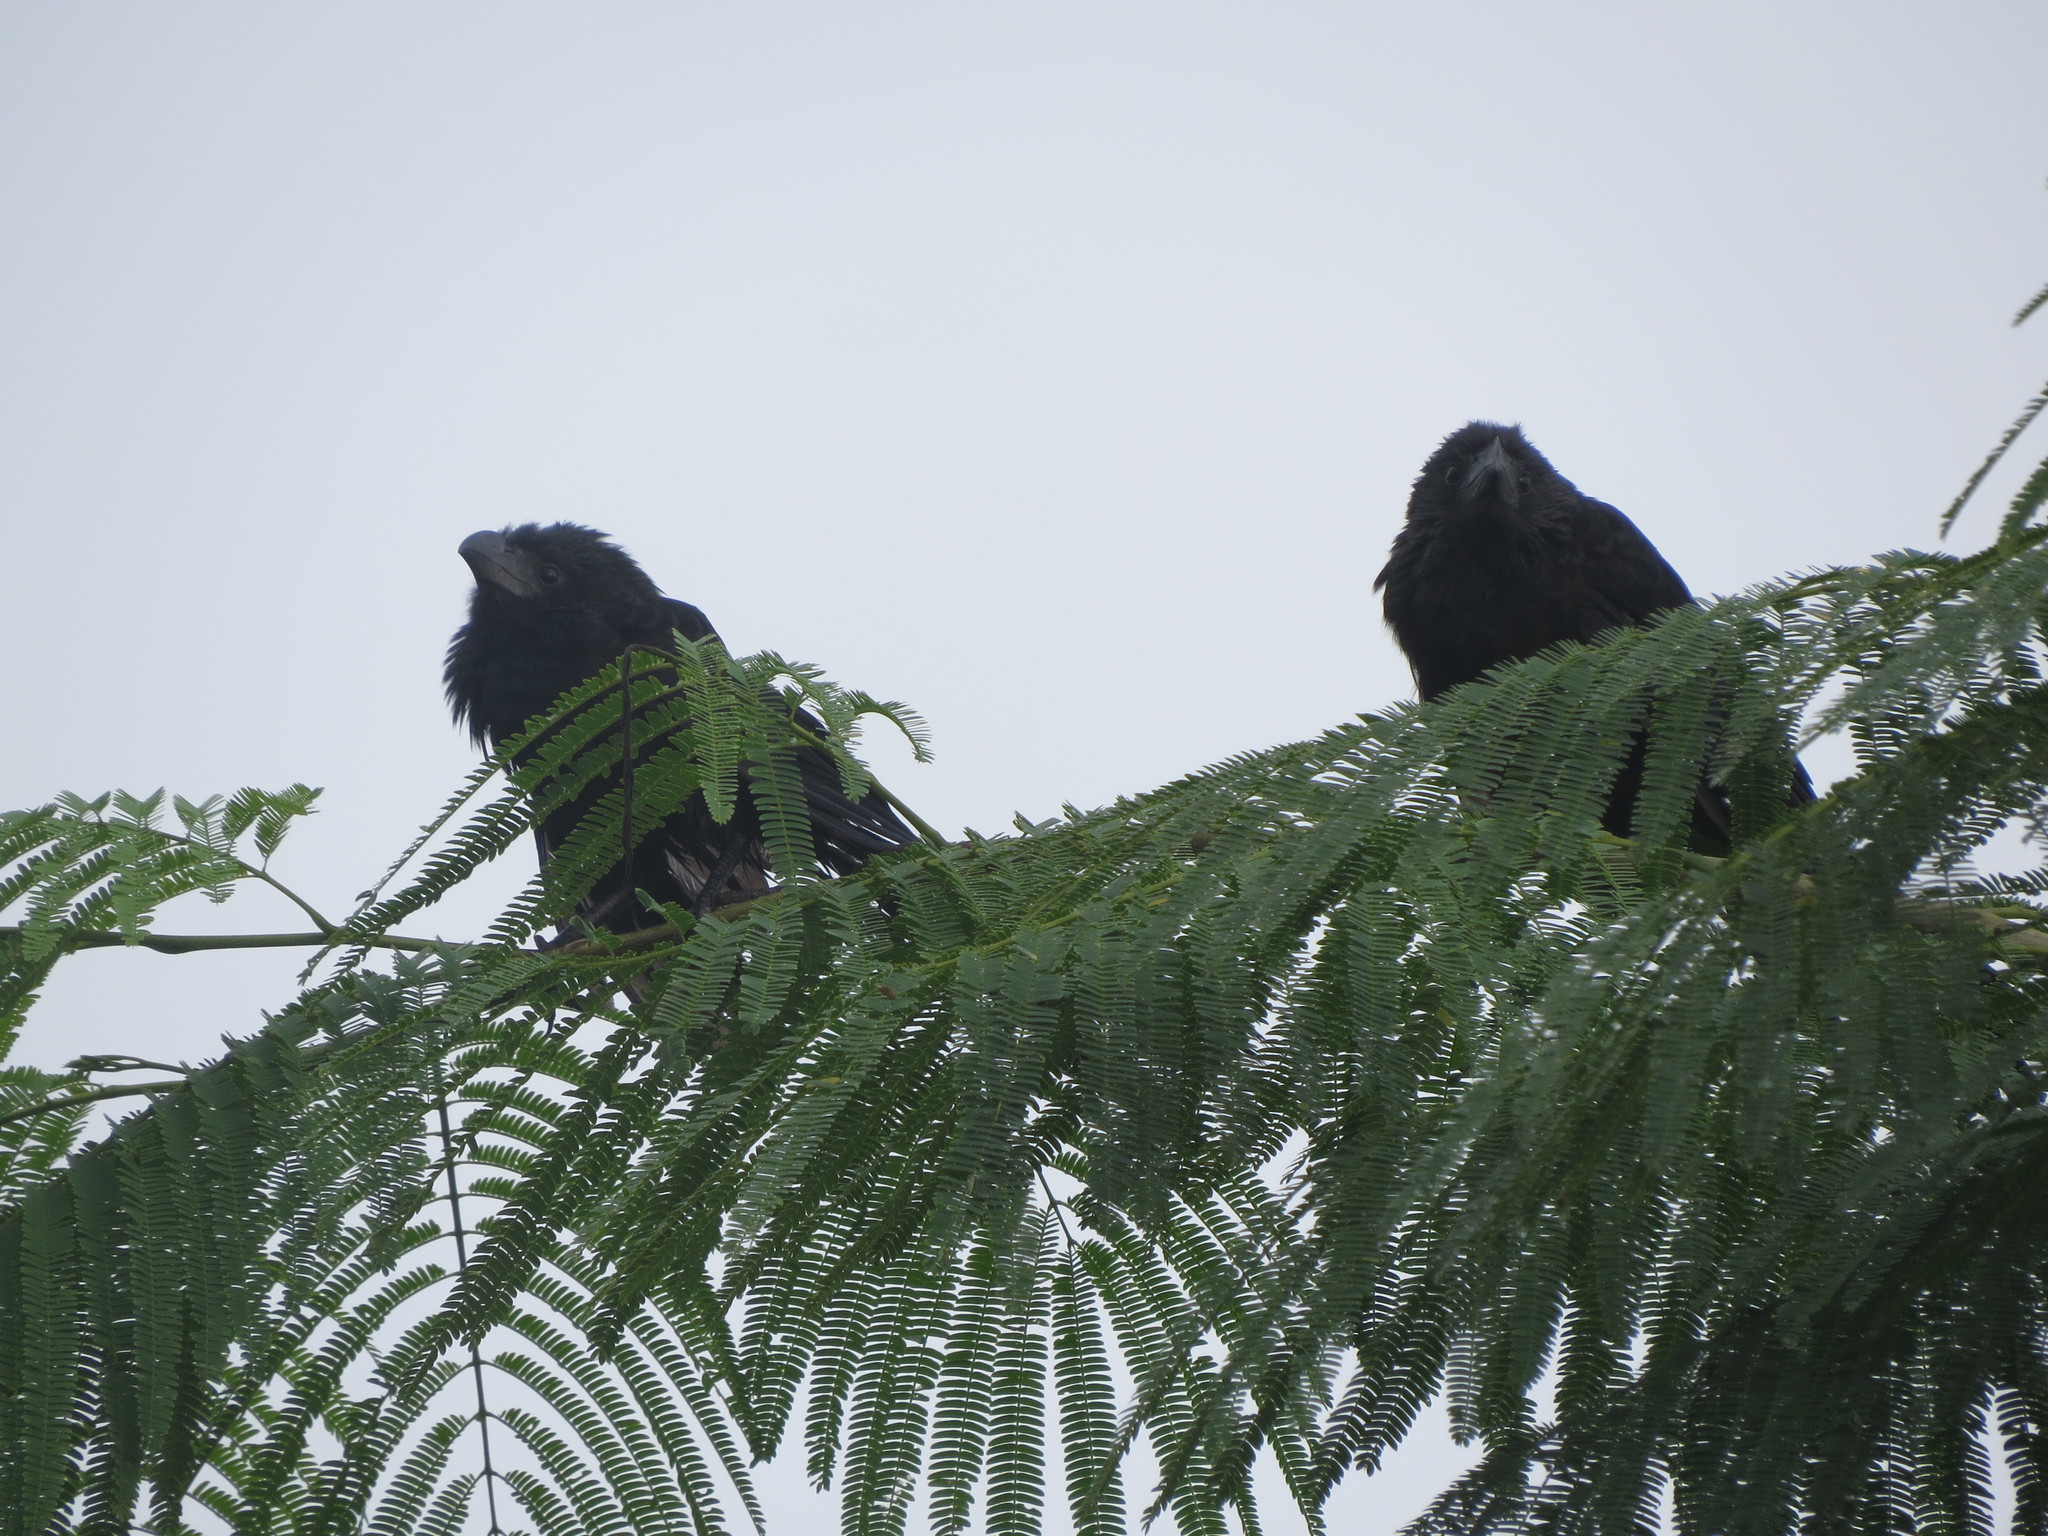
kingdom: Animalia
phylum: Chordata
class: Aves
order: Cuculiformes
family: Cuculidae
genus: Crotophaga
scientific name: Crotophaga sulcirostris
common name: Groove-billed ani
